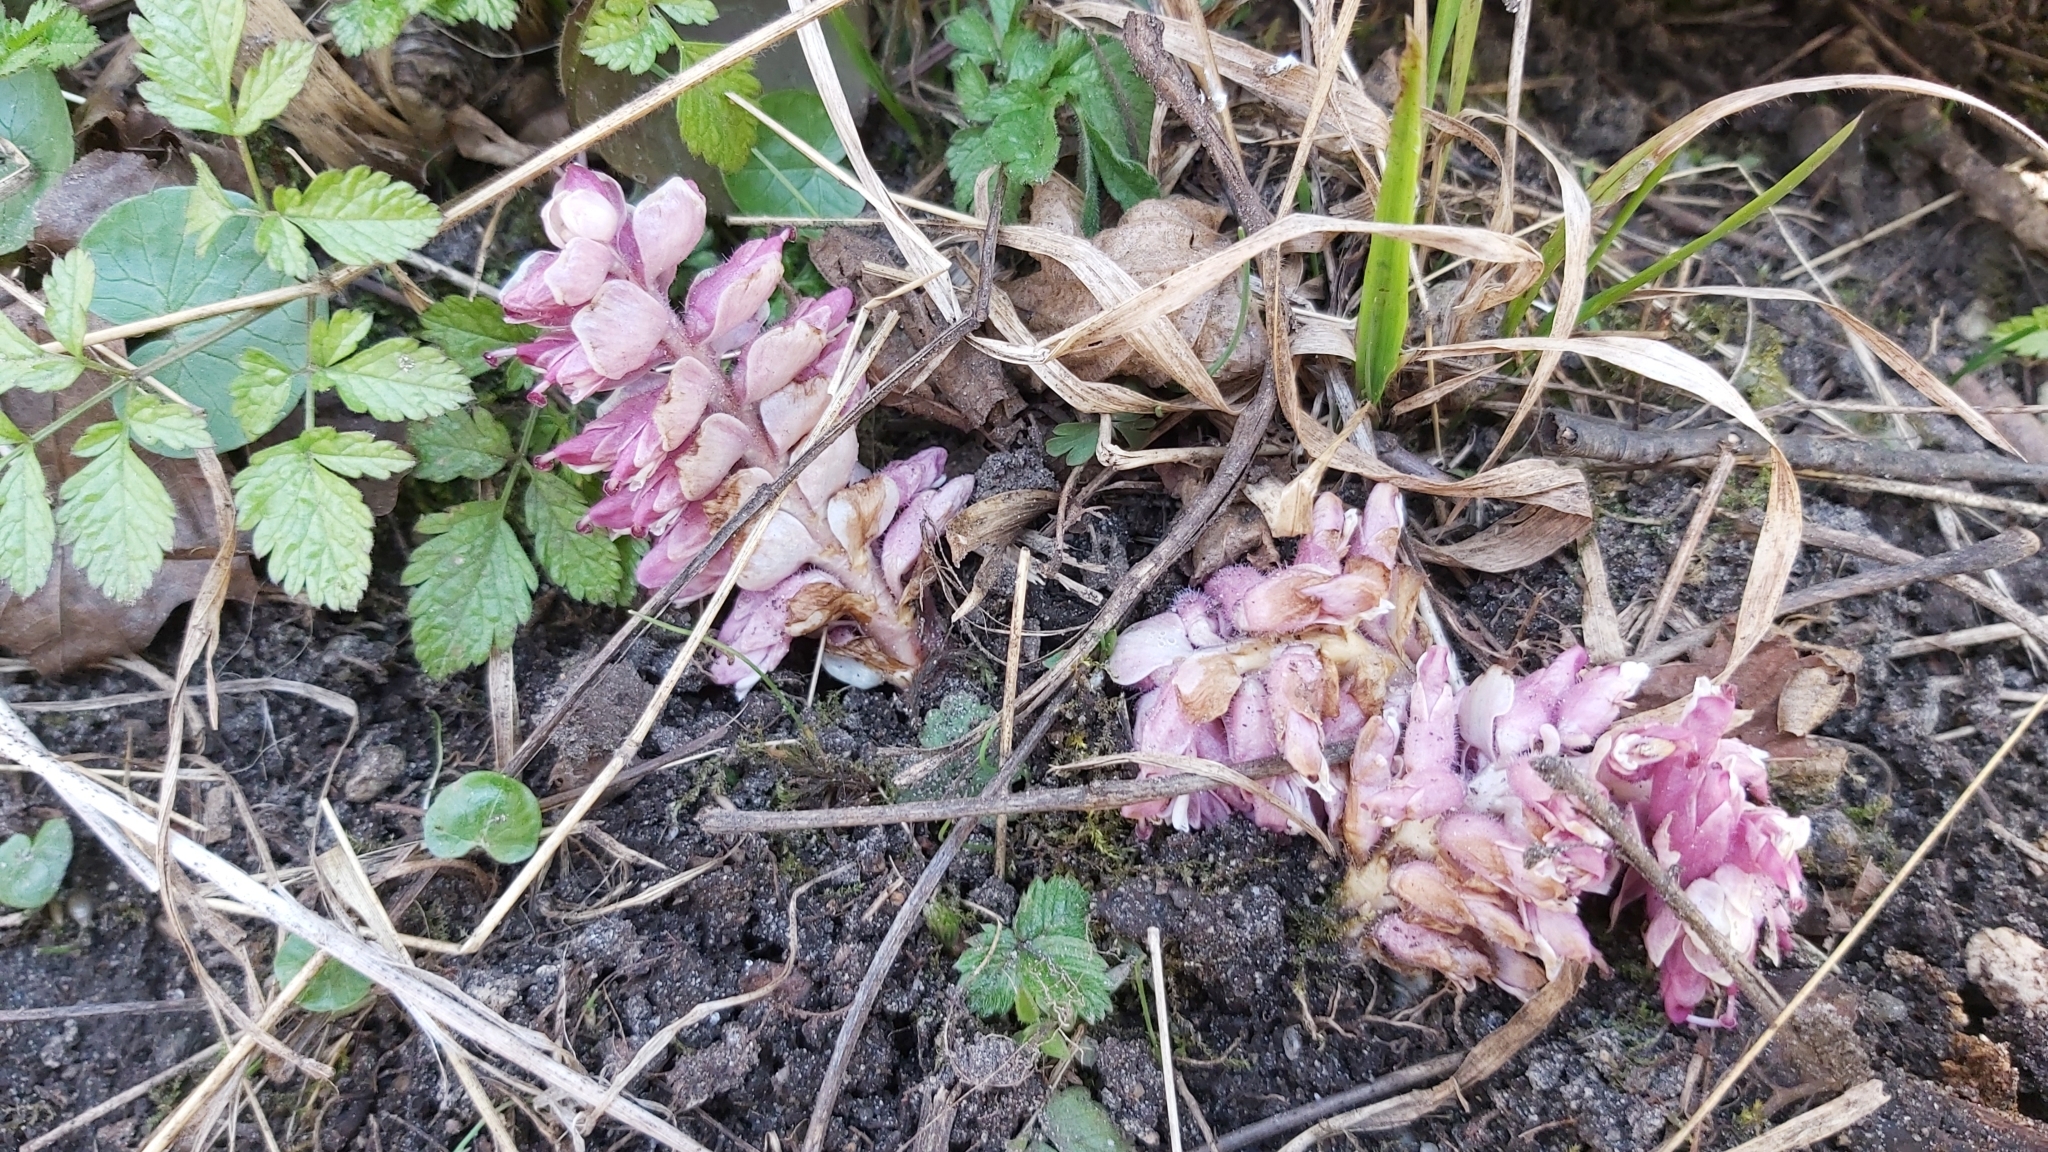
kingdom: Plantae
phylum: Tracheophyta
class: Magnoliopsida
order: Lamiales
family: Orobanchaceae
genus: Lathraea
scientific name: Lathraea squamaria
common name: Toothwort
